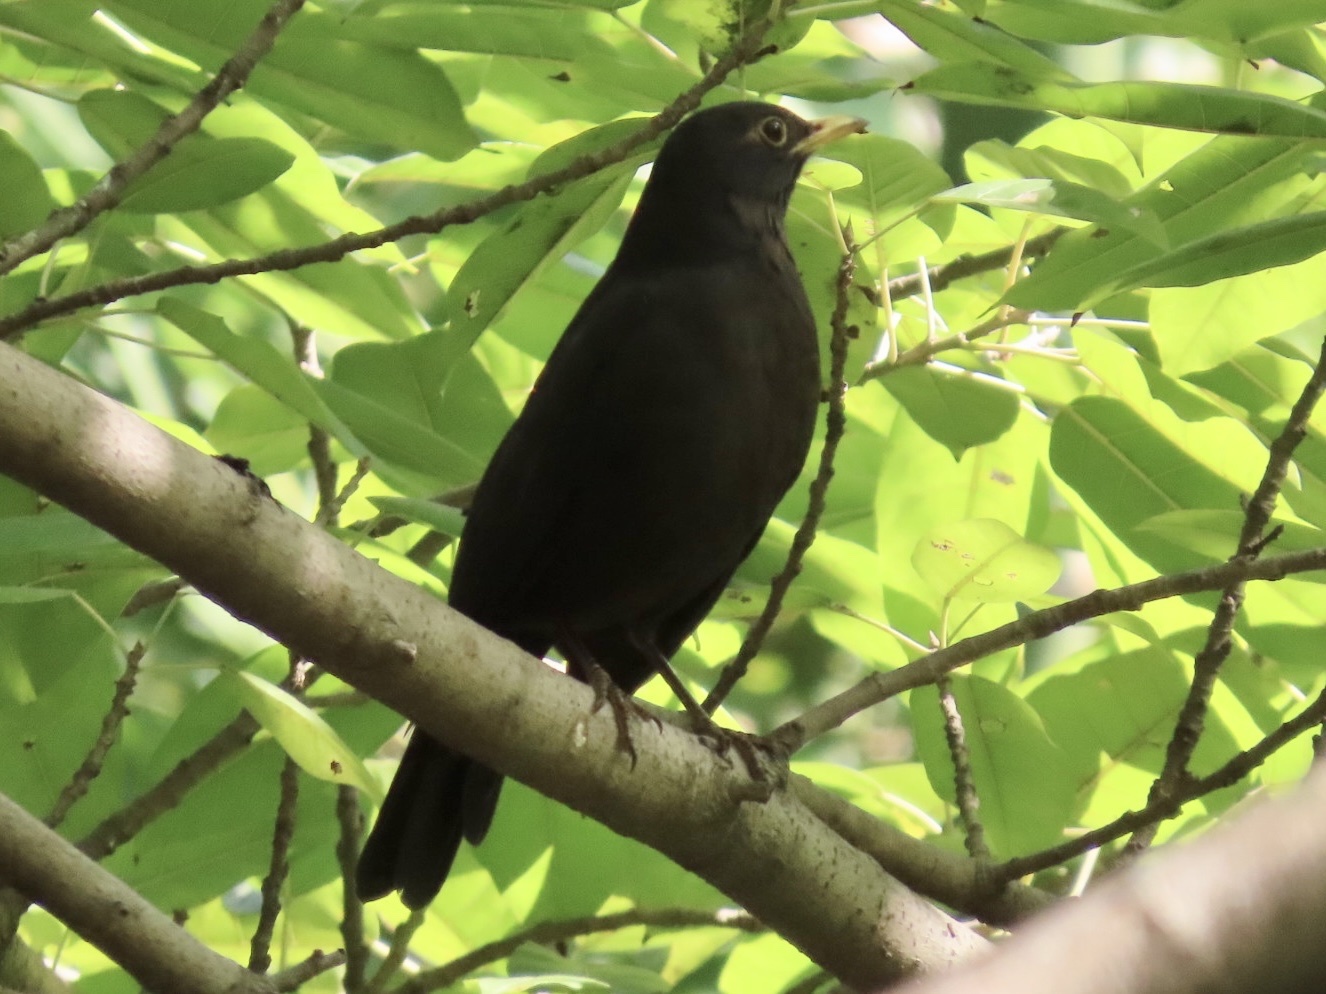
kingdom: Animalia
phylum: Chordata
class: Aves
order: Passeriformes
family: Turdidae
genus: Turdus
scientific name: Turdus mandarinus
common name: Chinese blackbird
